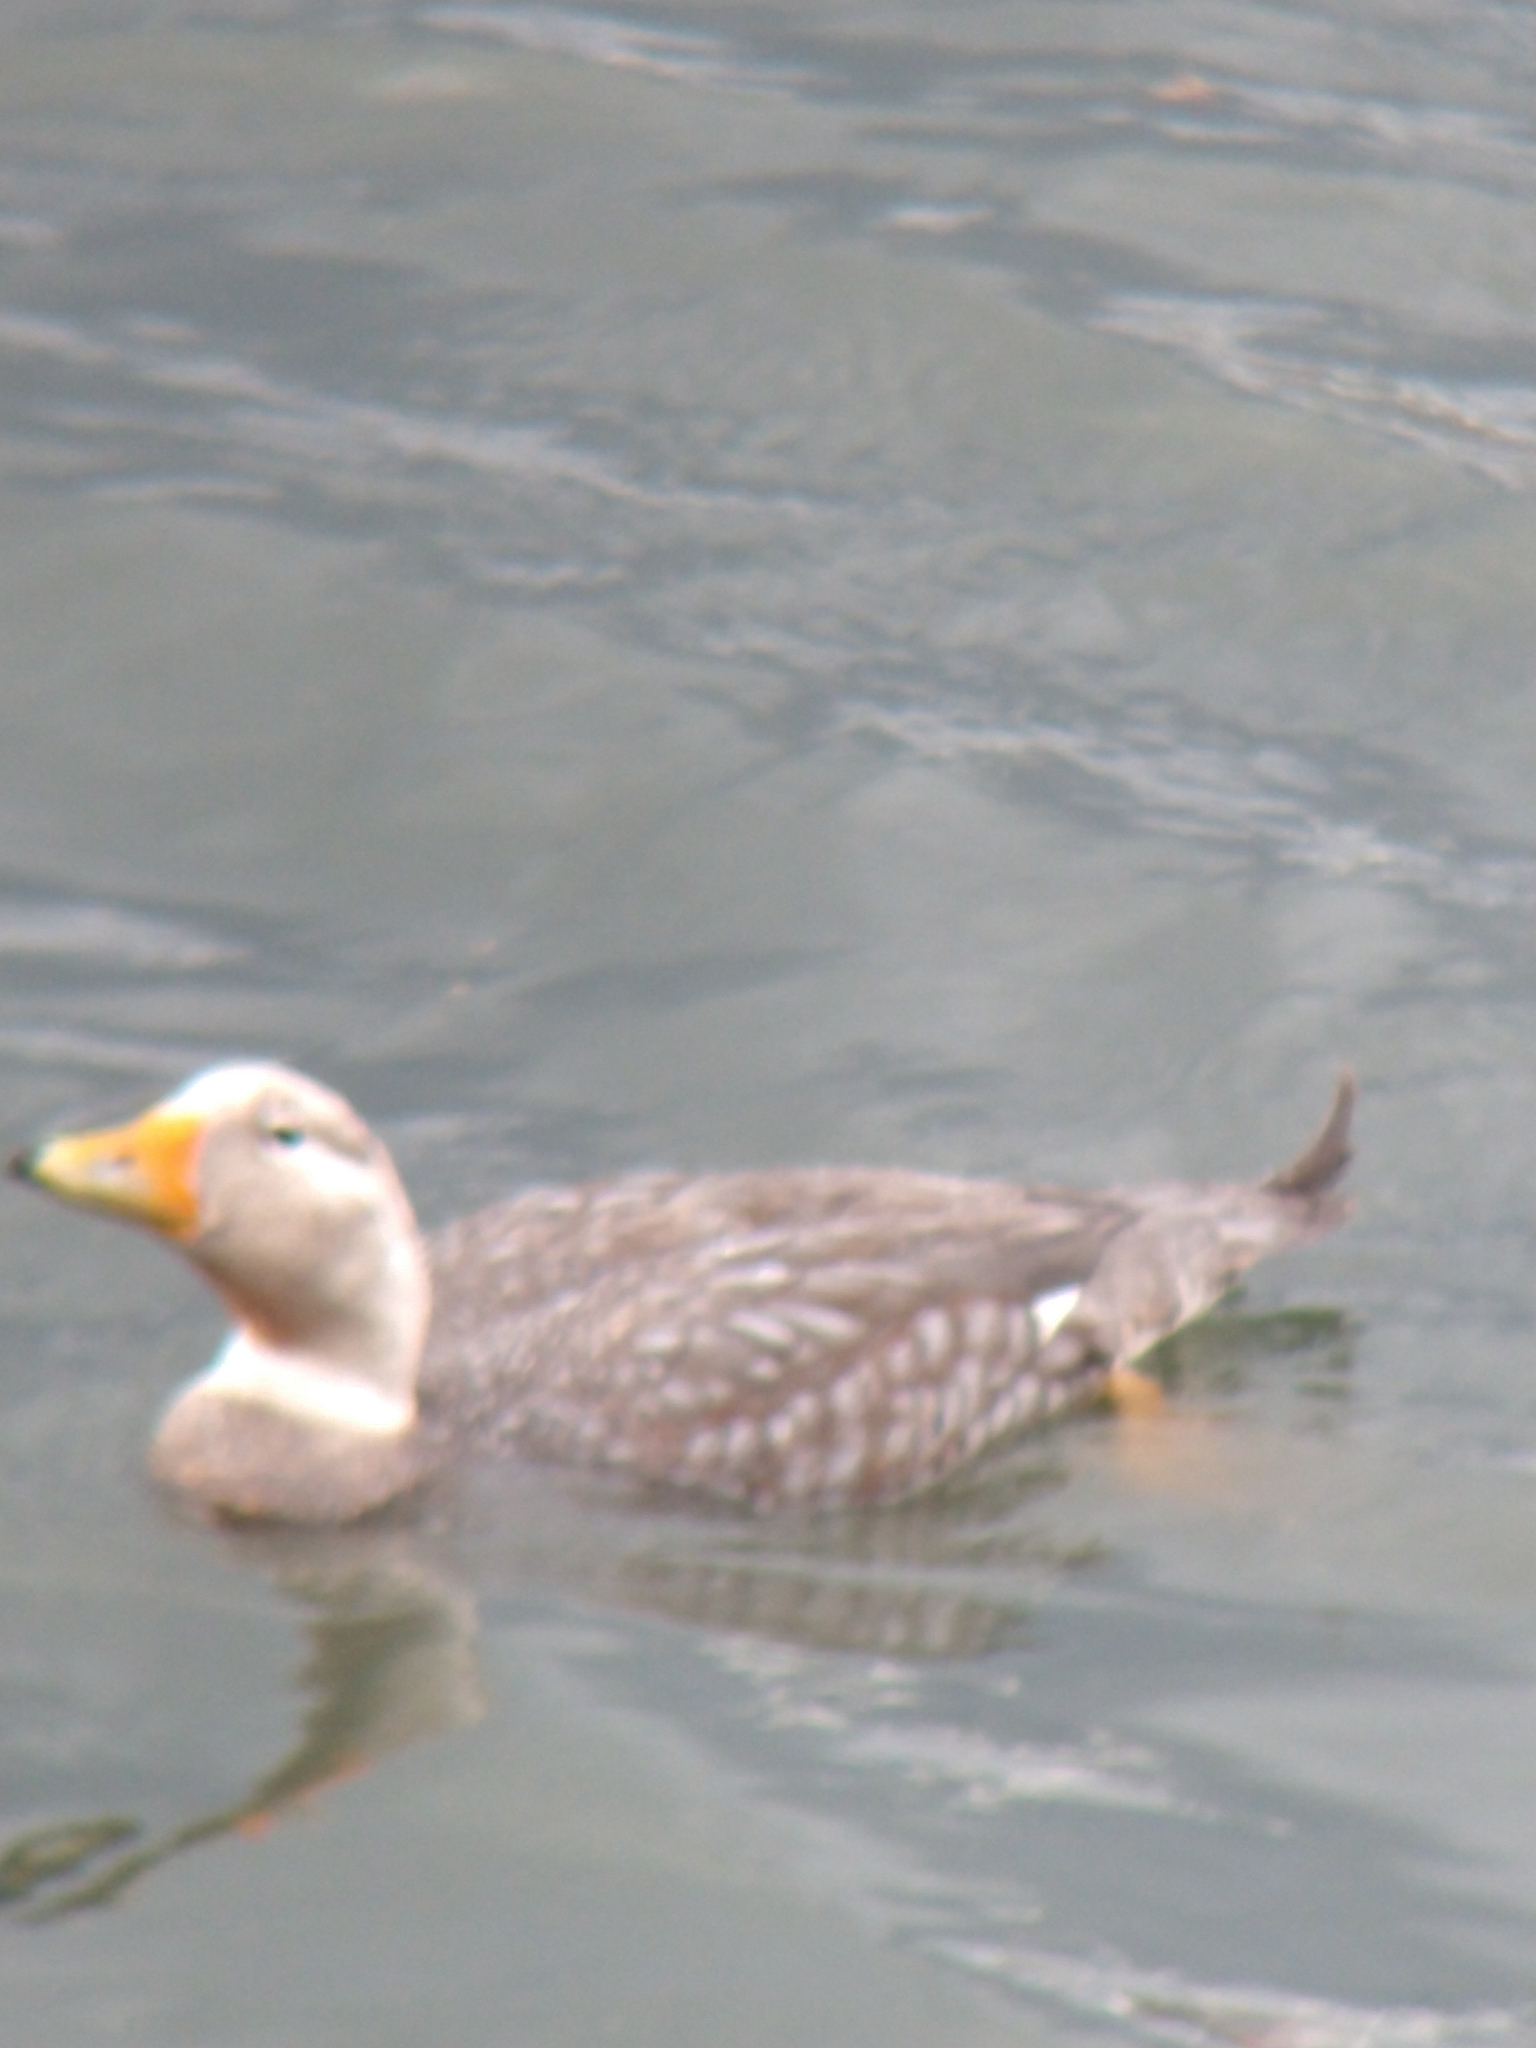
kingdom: Animalia
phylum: Chordata
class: Aves
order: Anseriformes
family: Anatidae
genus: Tachyeres
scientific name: Tachyeres patachonicus
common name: Flying steamer duck
